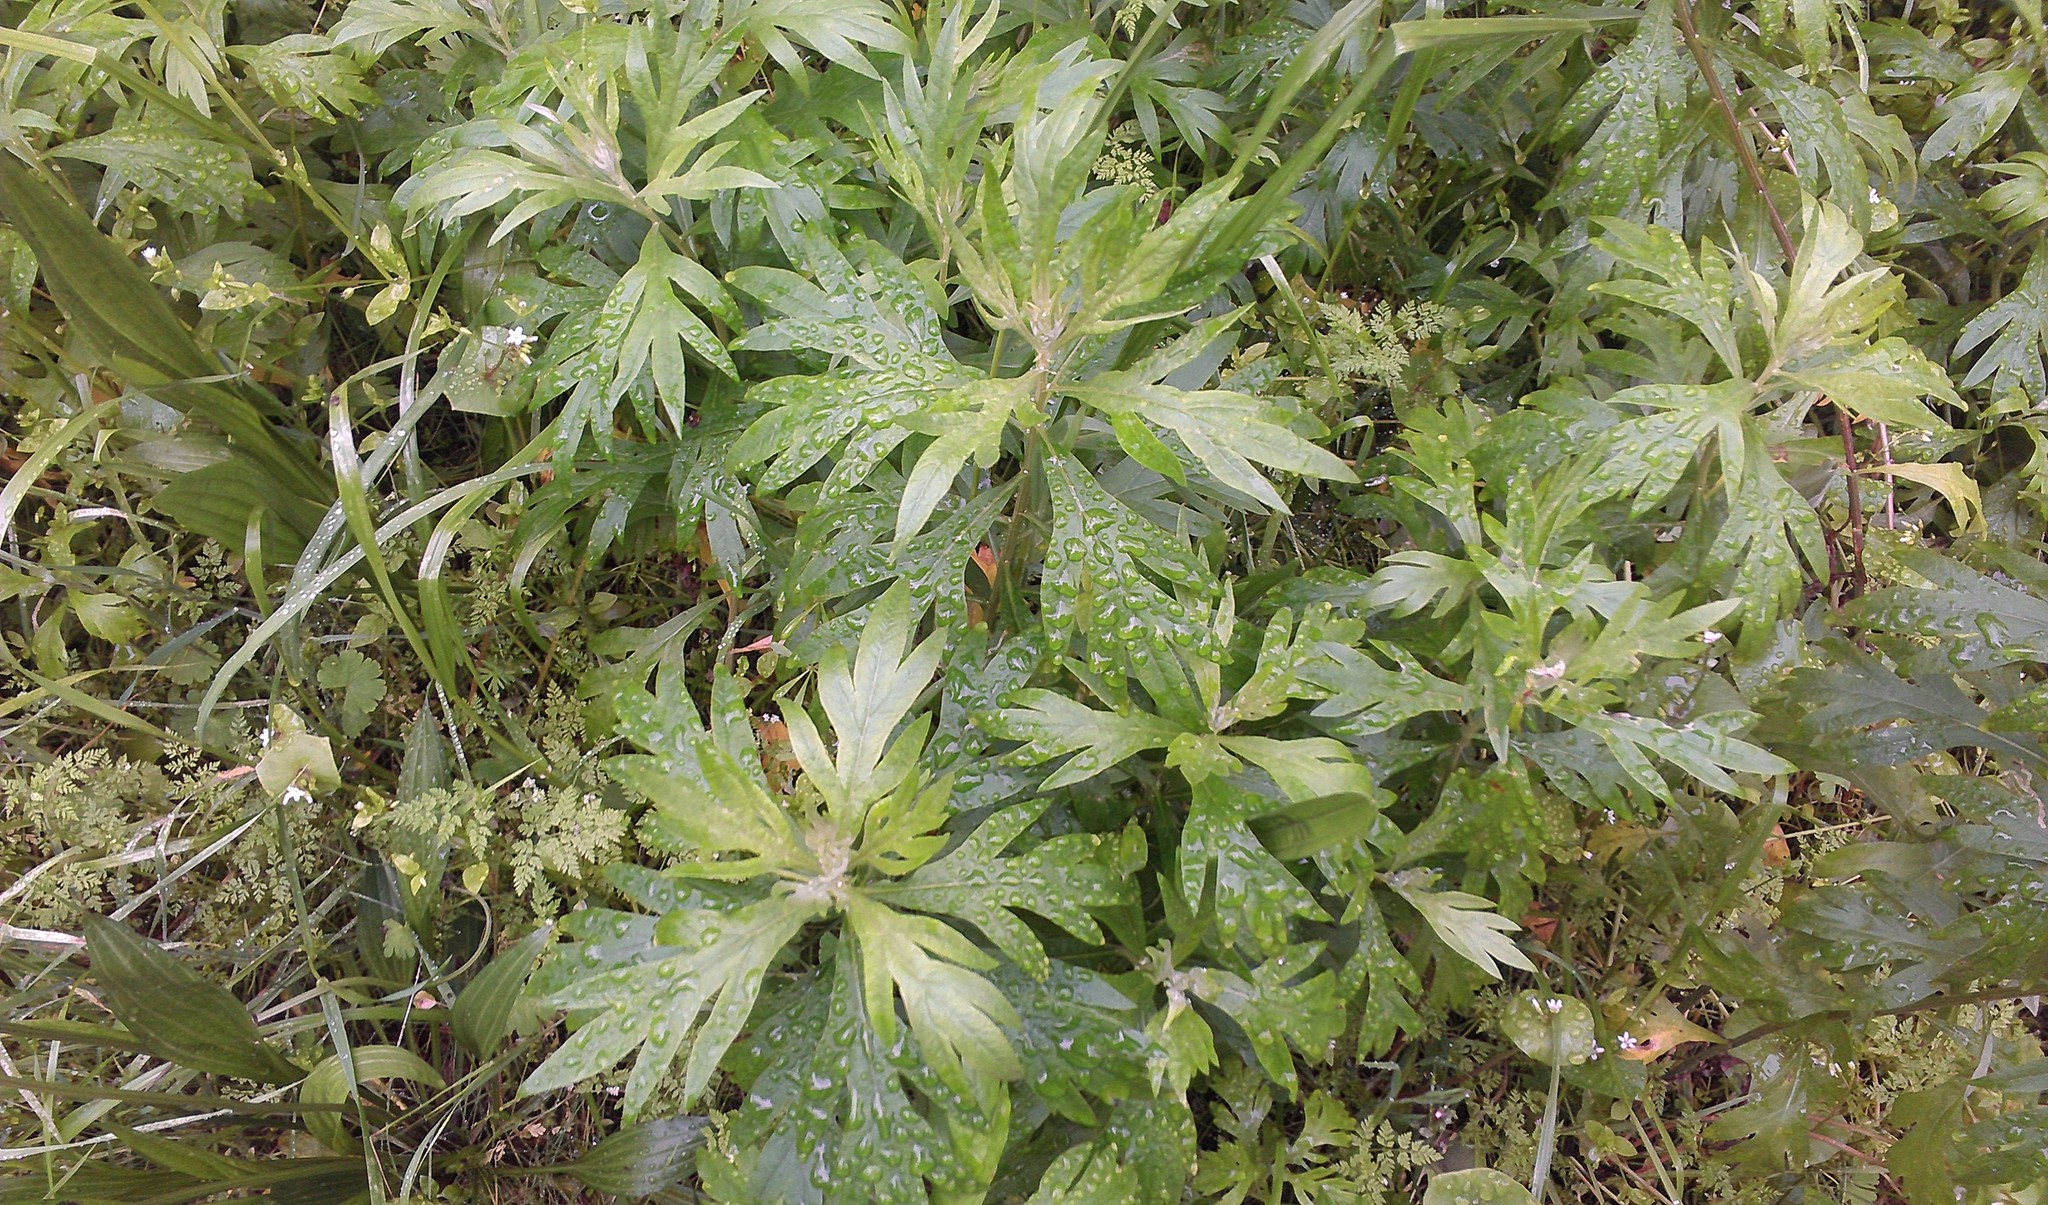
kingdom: Plantae
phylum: Tracheophyta
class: Magnoliopsida
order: Asterales
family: Asteraceae
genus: Artemisia
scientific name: Artemisia douglasiana
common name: Northwest mugwort
